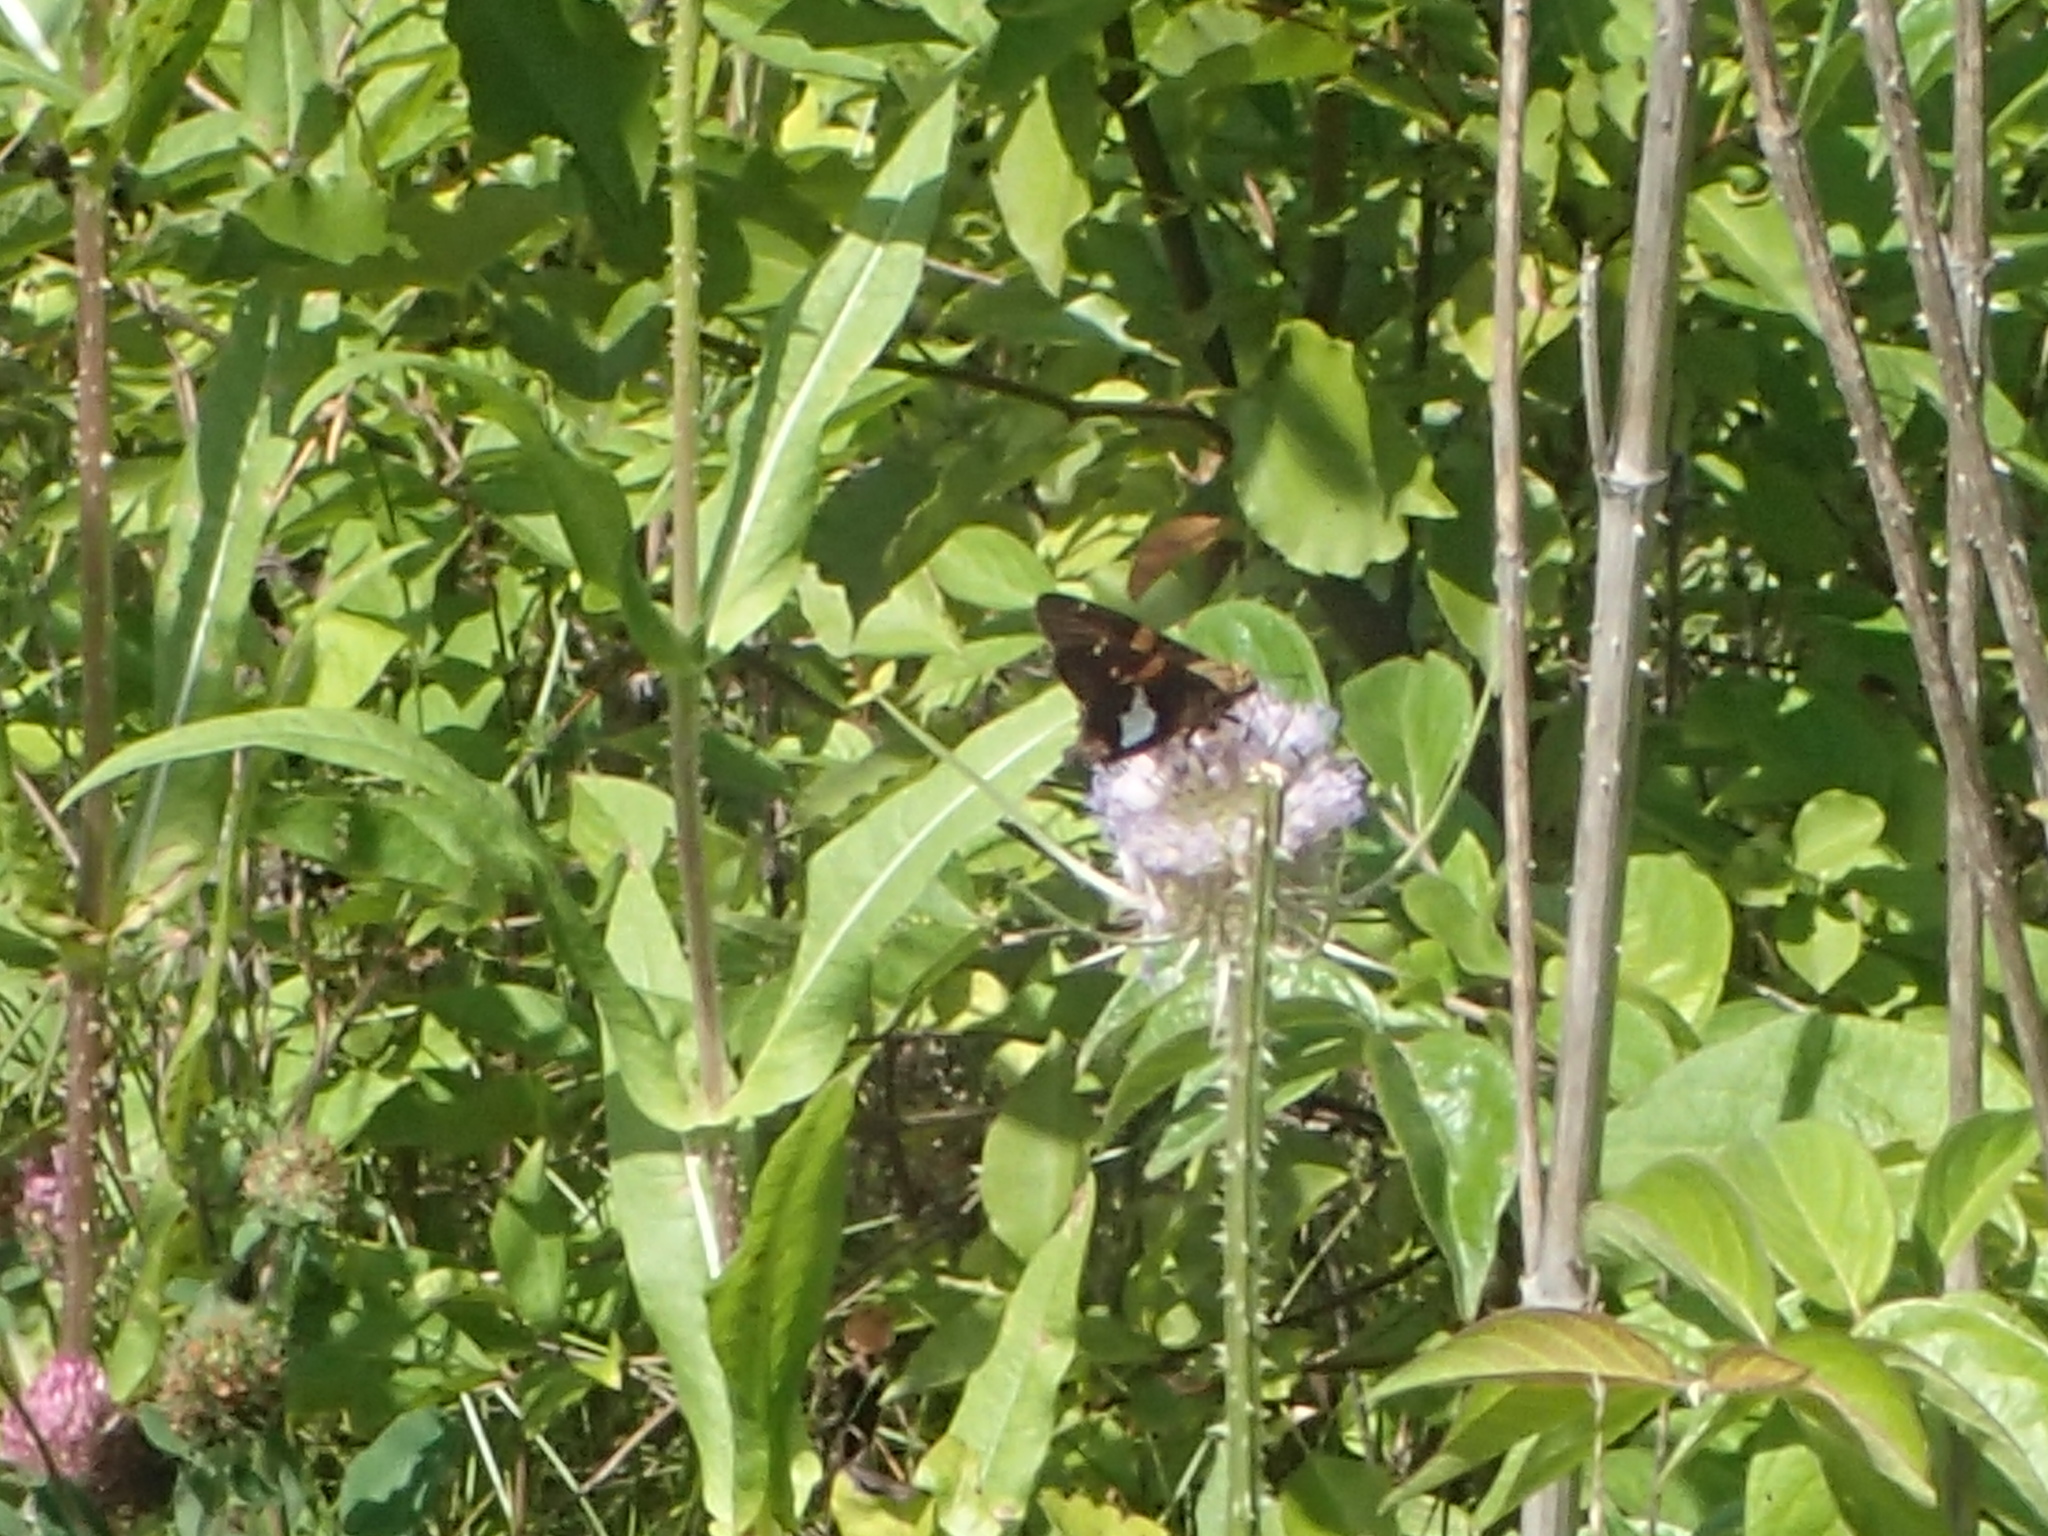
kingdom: Animalia
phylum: Arthropoda
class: Insecta
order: Lepidoptera
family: Hesperiidae
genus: Epargyreus
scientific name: Epargyreus clarus
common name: Silver-spotted skipper
